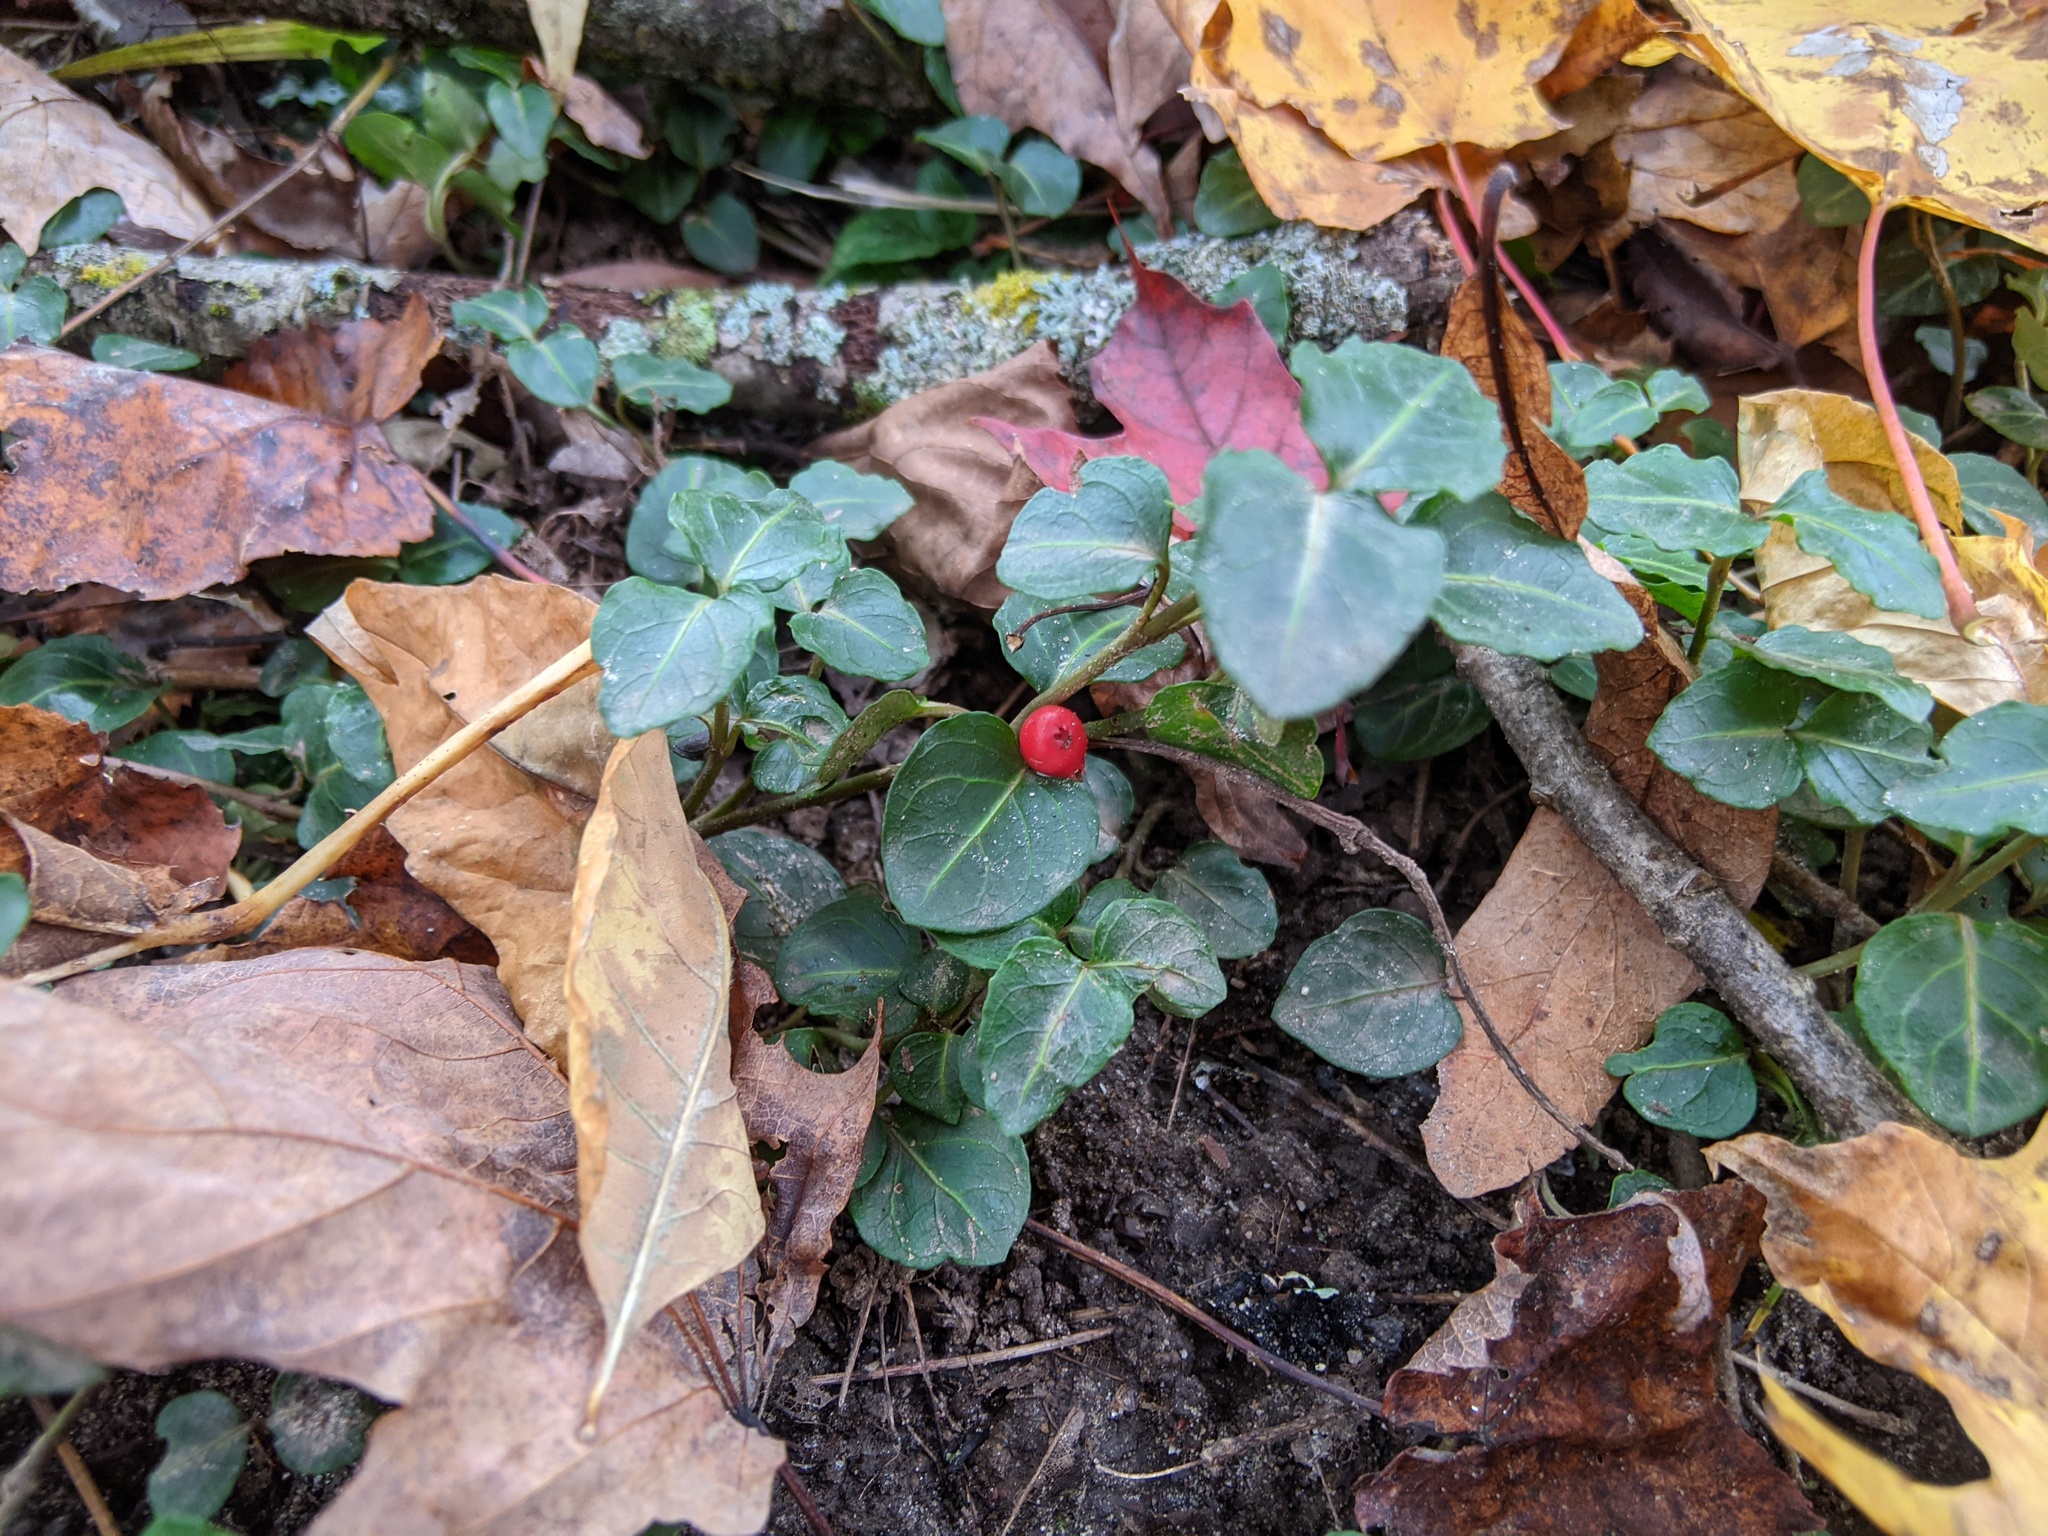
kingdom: Plantae
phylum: Tracheophyta
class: Magnoliopsida
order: Gentianales
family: Rubiaceae
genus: Mitchella
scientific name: Mitchella repens
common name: Partridge-berry
